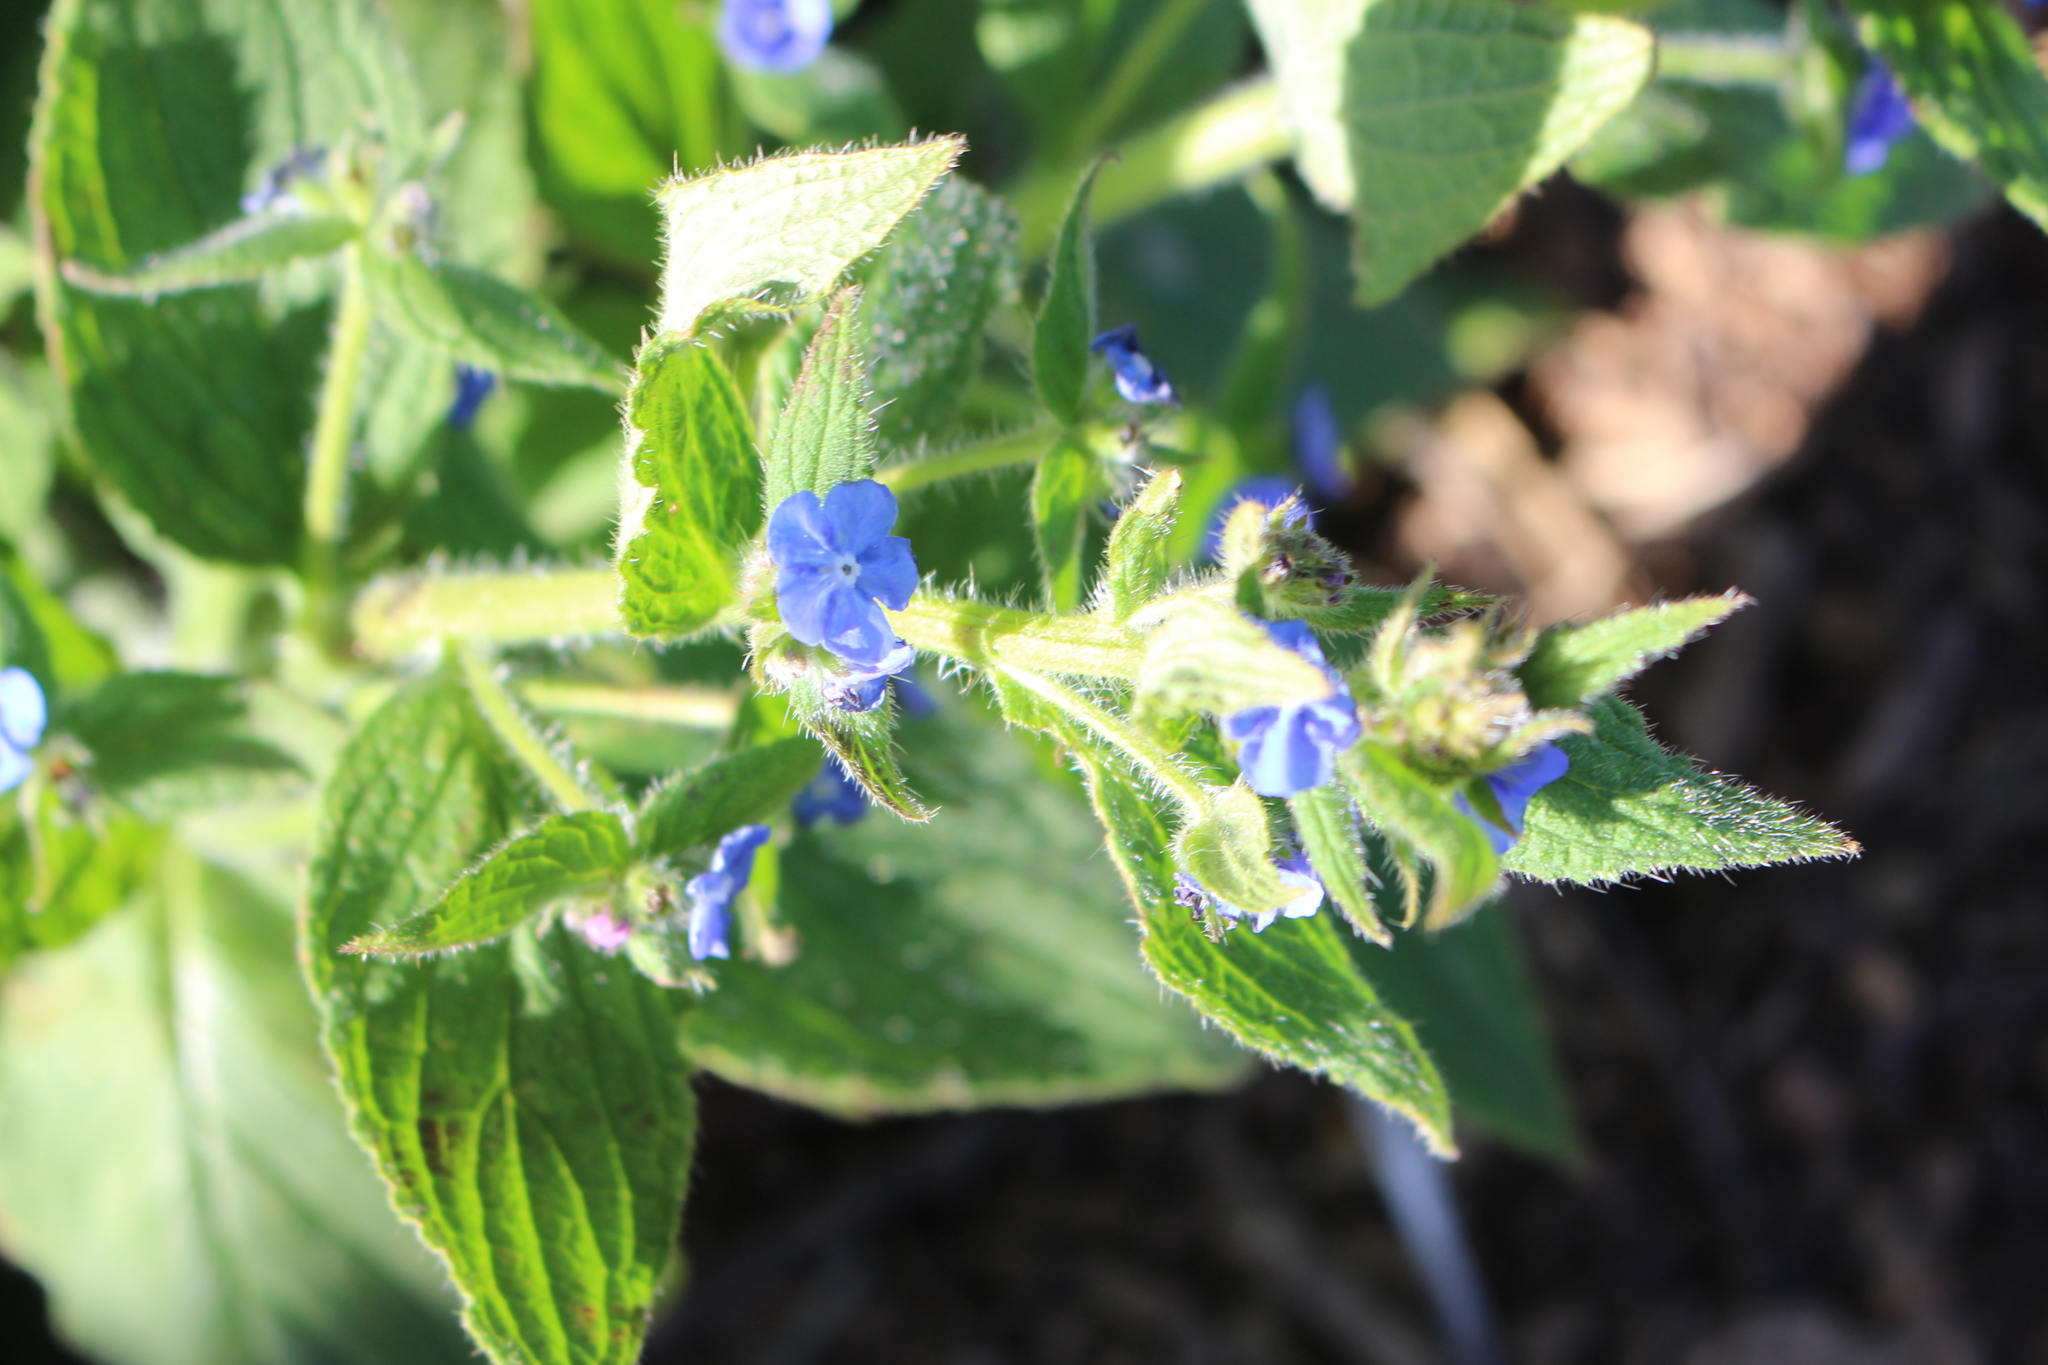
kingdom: Plantae
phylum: Tracheophyta
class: Magnoliopsida
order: Boraginales
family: Boraginaceae
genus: Pentaglottis
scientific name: Pentaglottis sempervirens
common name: Green alkanet
